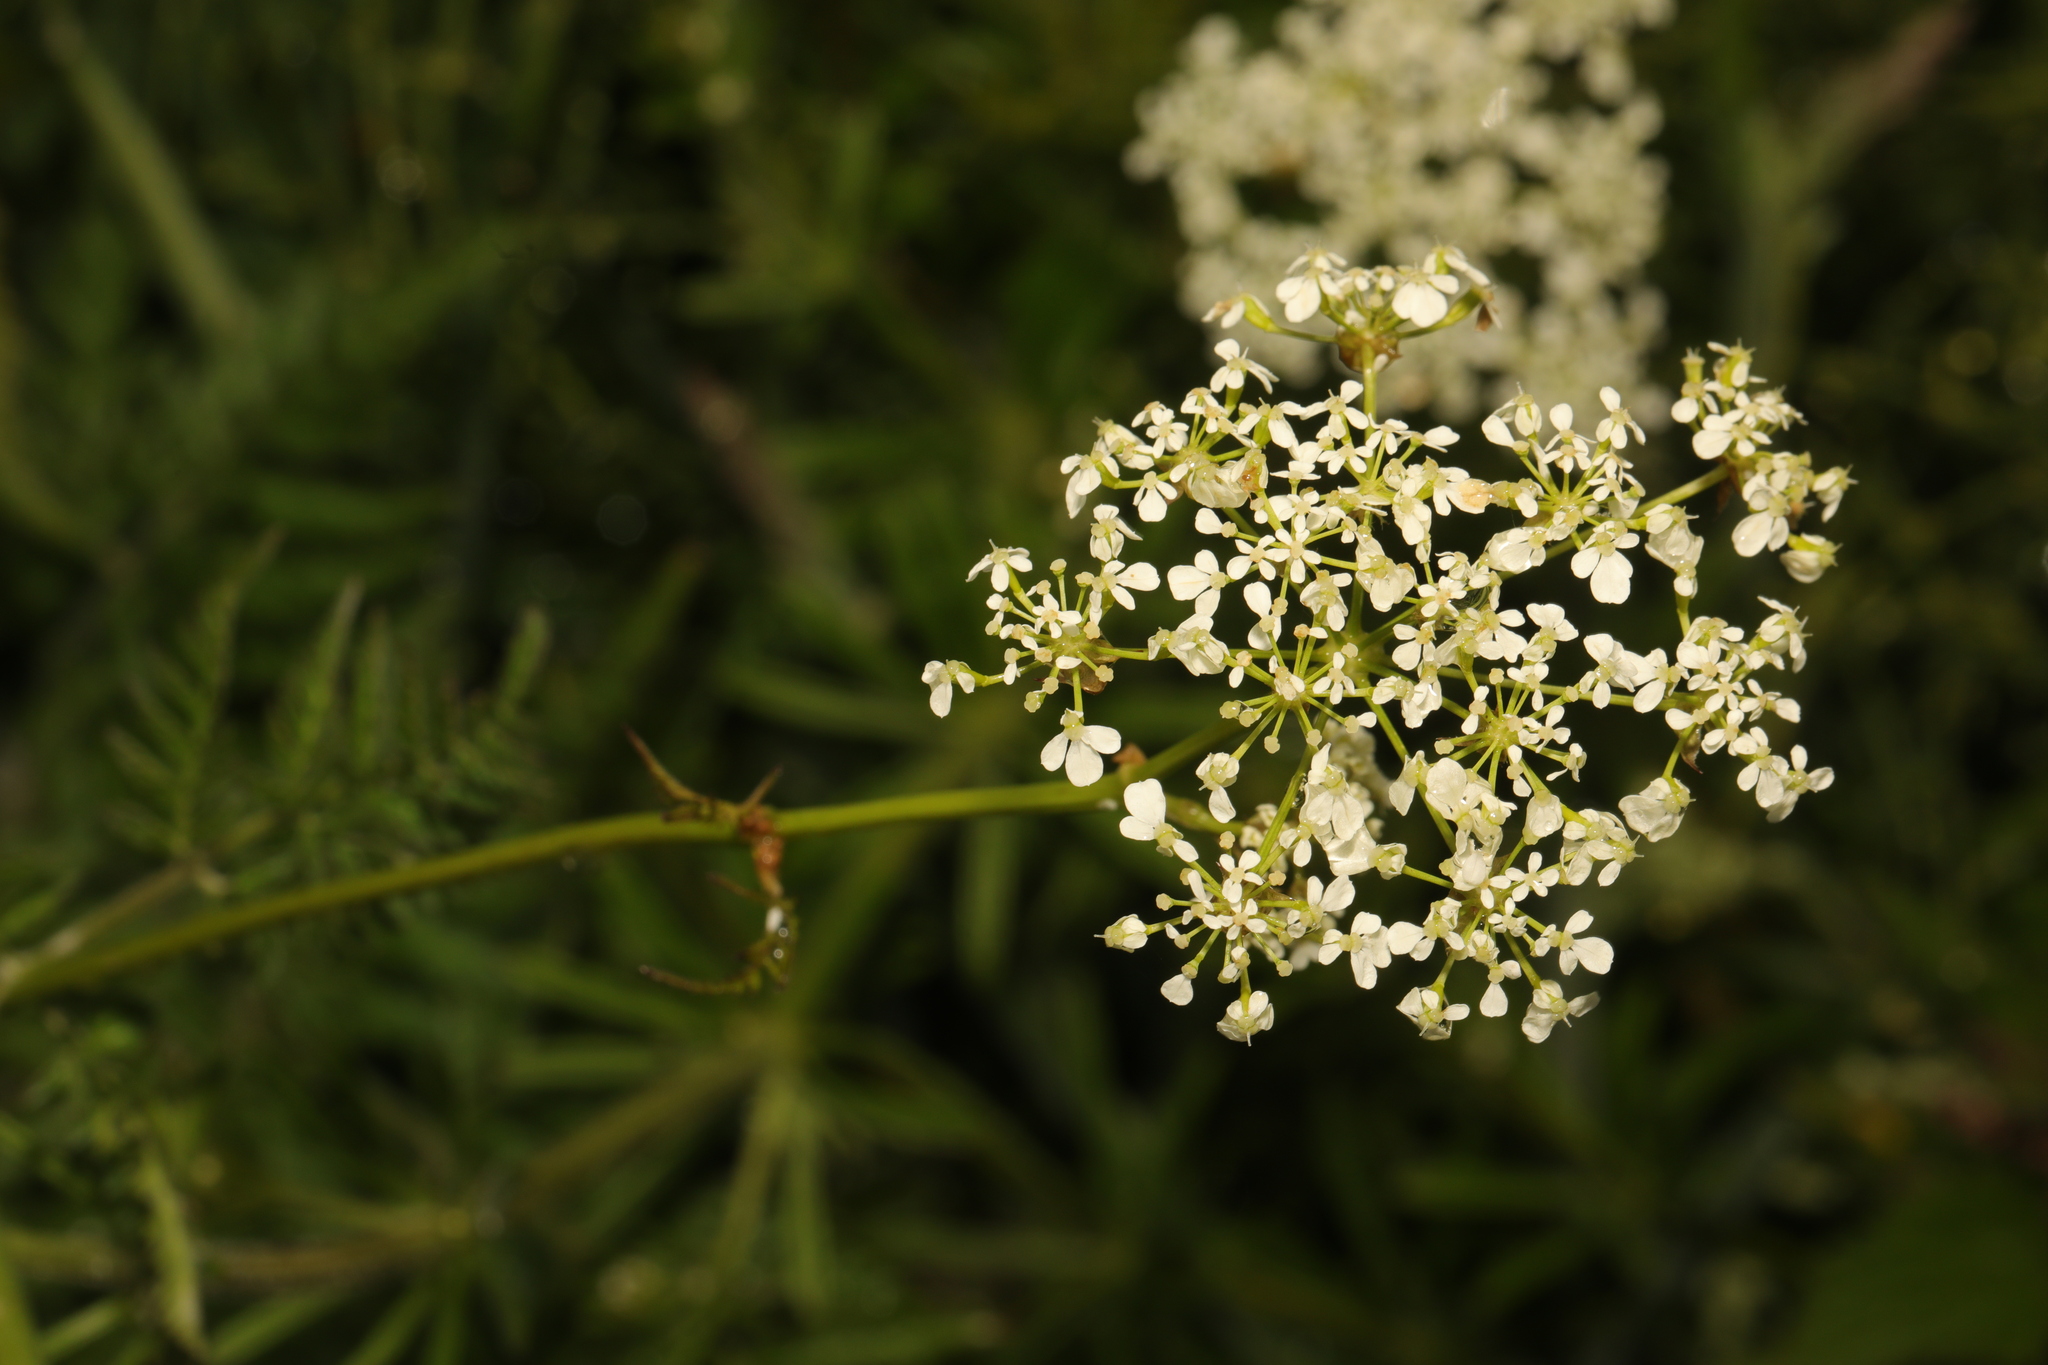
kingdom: Plantae
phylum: Tracheophyta
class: Magnoliopsida
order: Apiales
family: Apiaceae
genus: Anthriscus
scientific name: Anthriscus sylvestris
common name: Cow parsley
